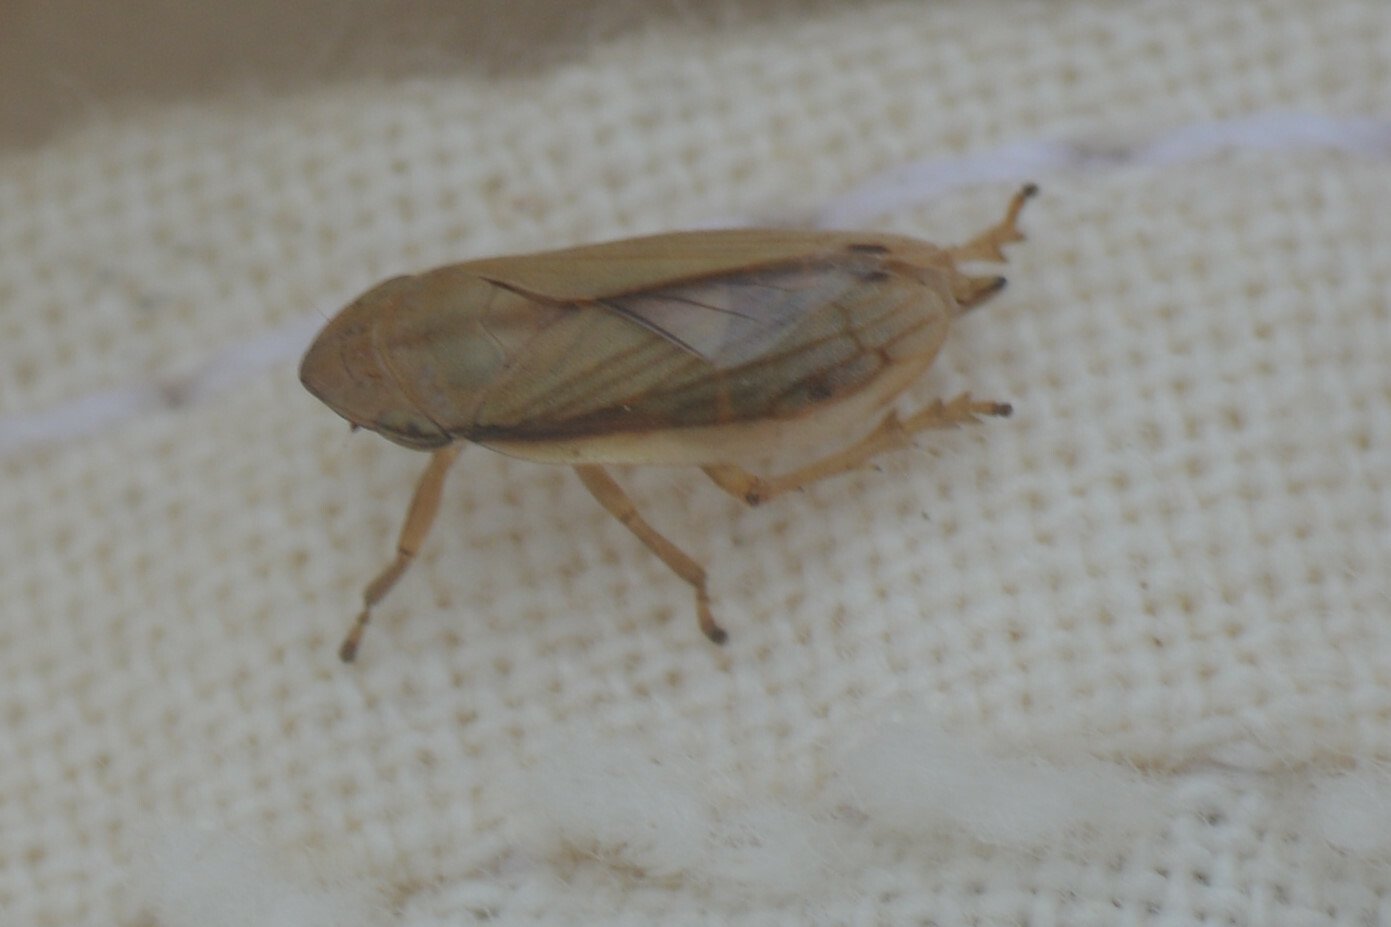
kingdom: Animalia
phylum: Arthropoda
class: Insecta
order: Hemiptera
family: Aphrophoridae
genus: Neophilaenus
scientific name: Neophilaenus lineatus
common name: Spittlebug
